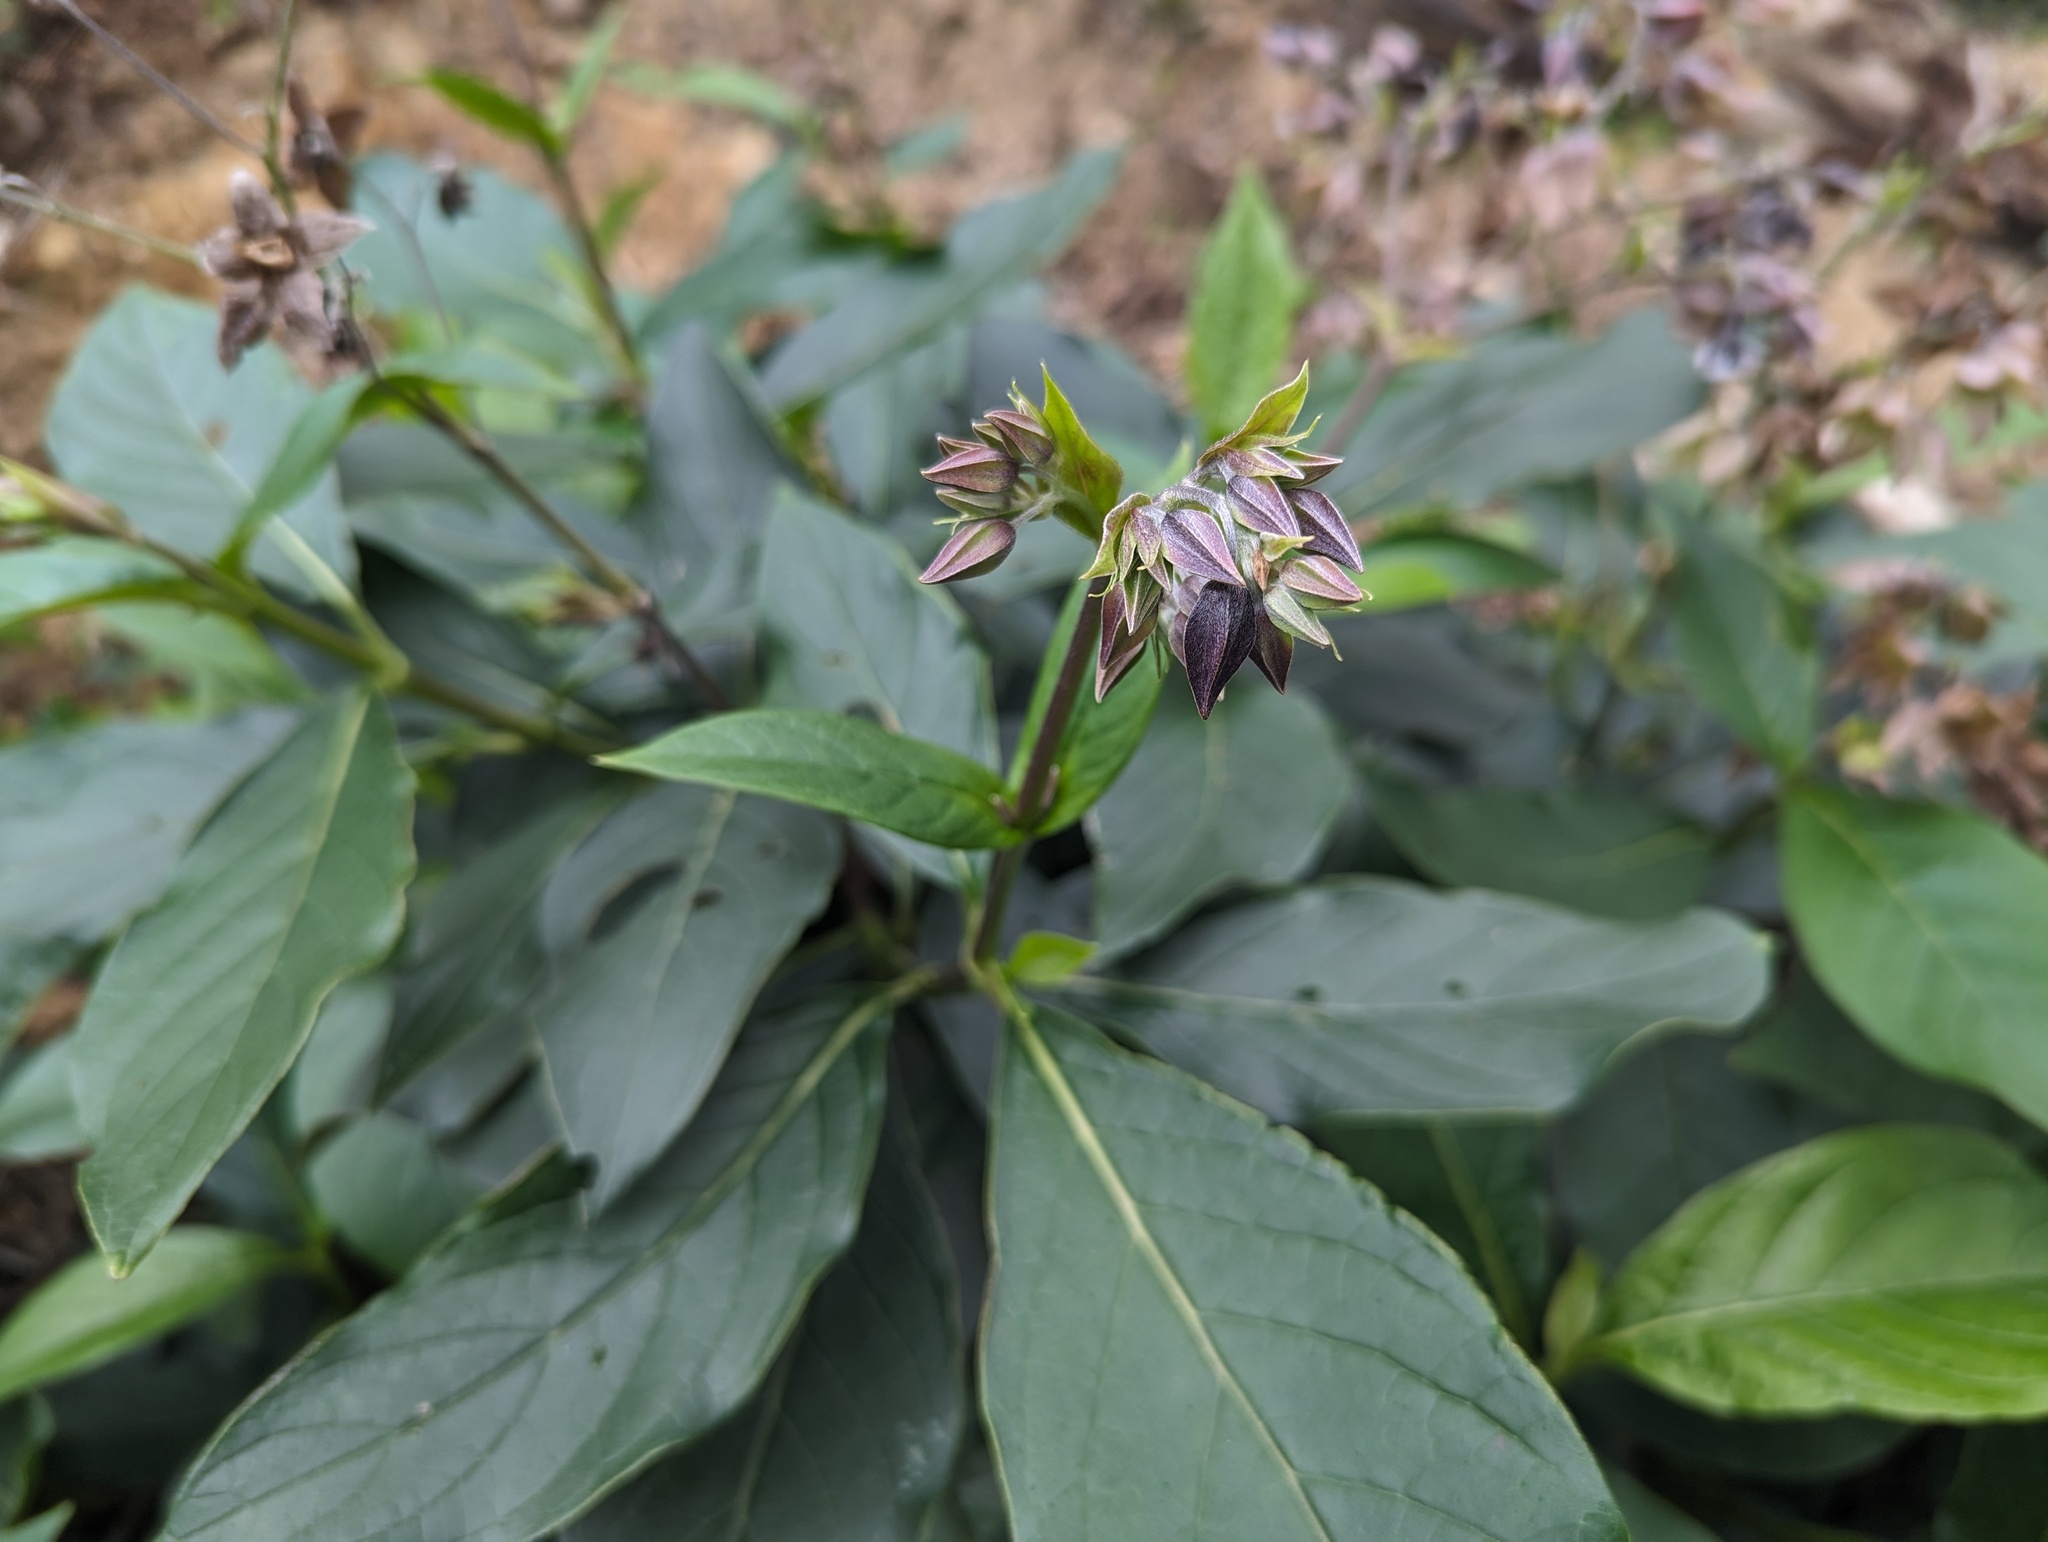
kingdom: Plantae
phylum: Tracheophyta
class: Magnoliopsida
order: Boraginales
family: Boraginaceae
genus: Trichodesma
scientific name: Trichodesma calycosum
